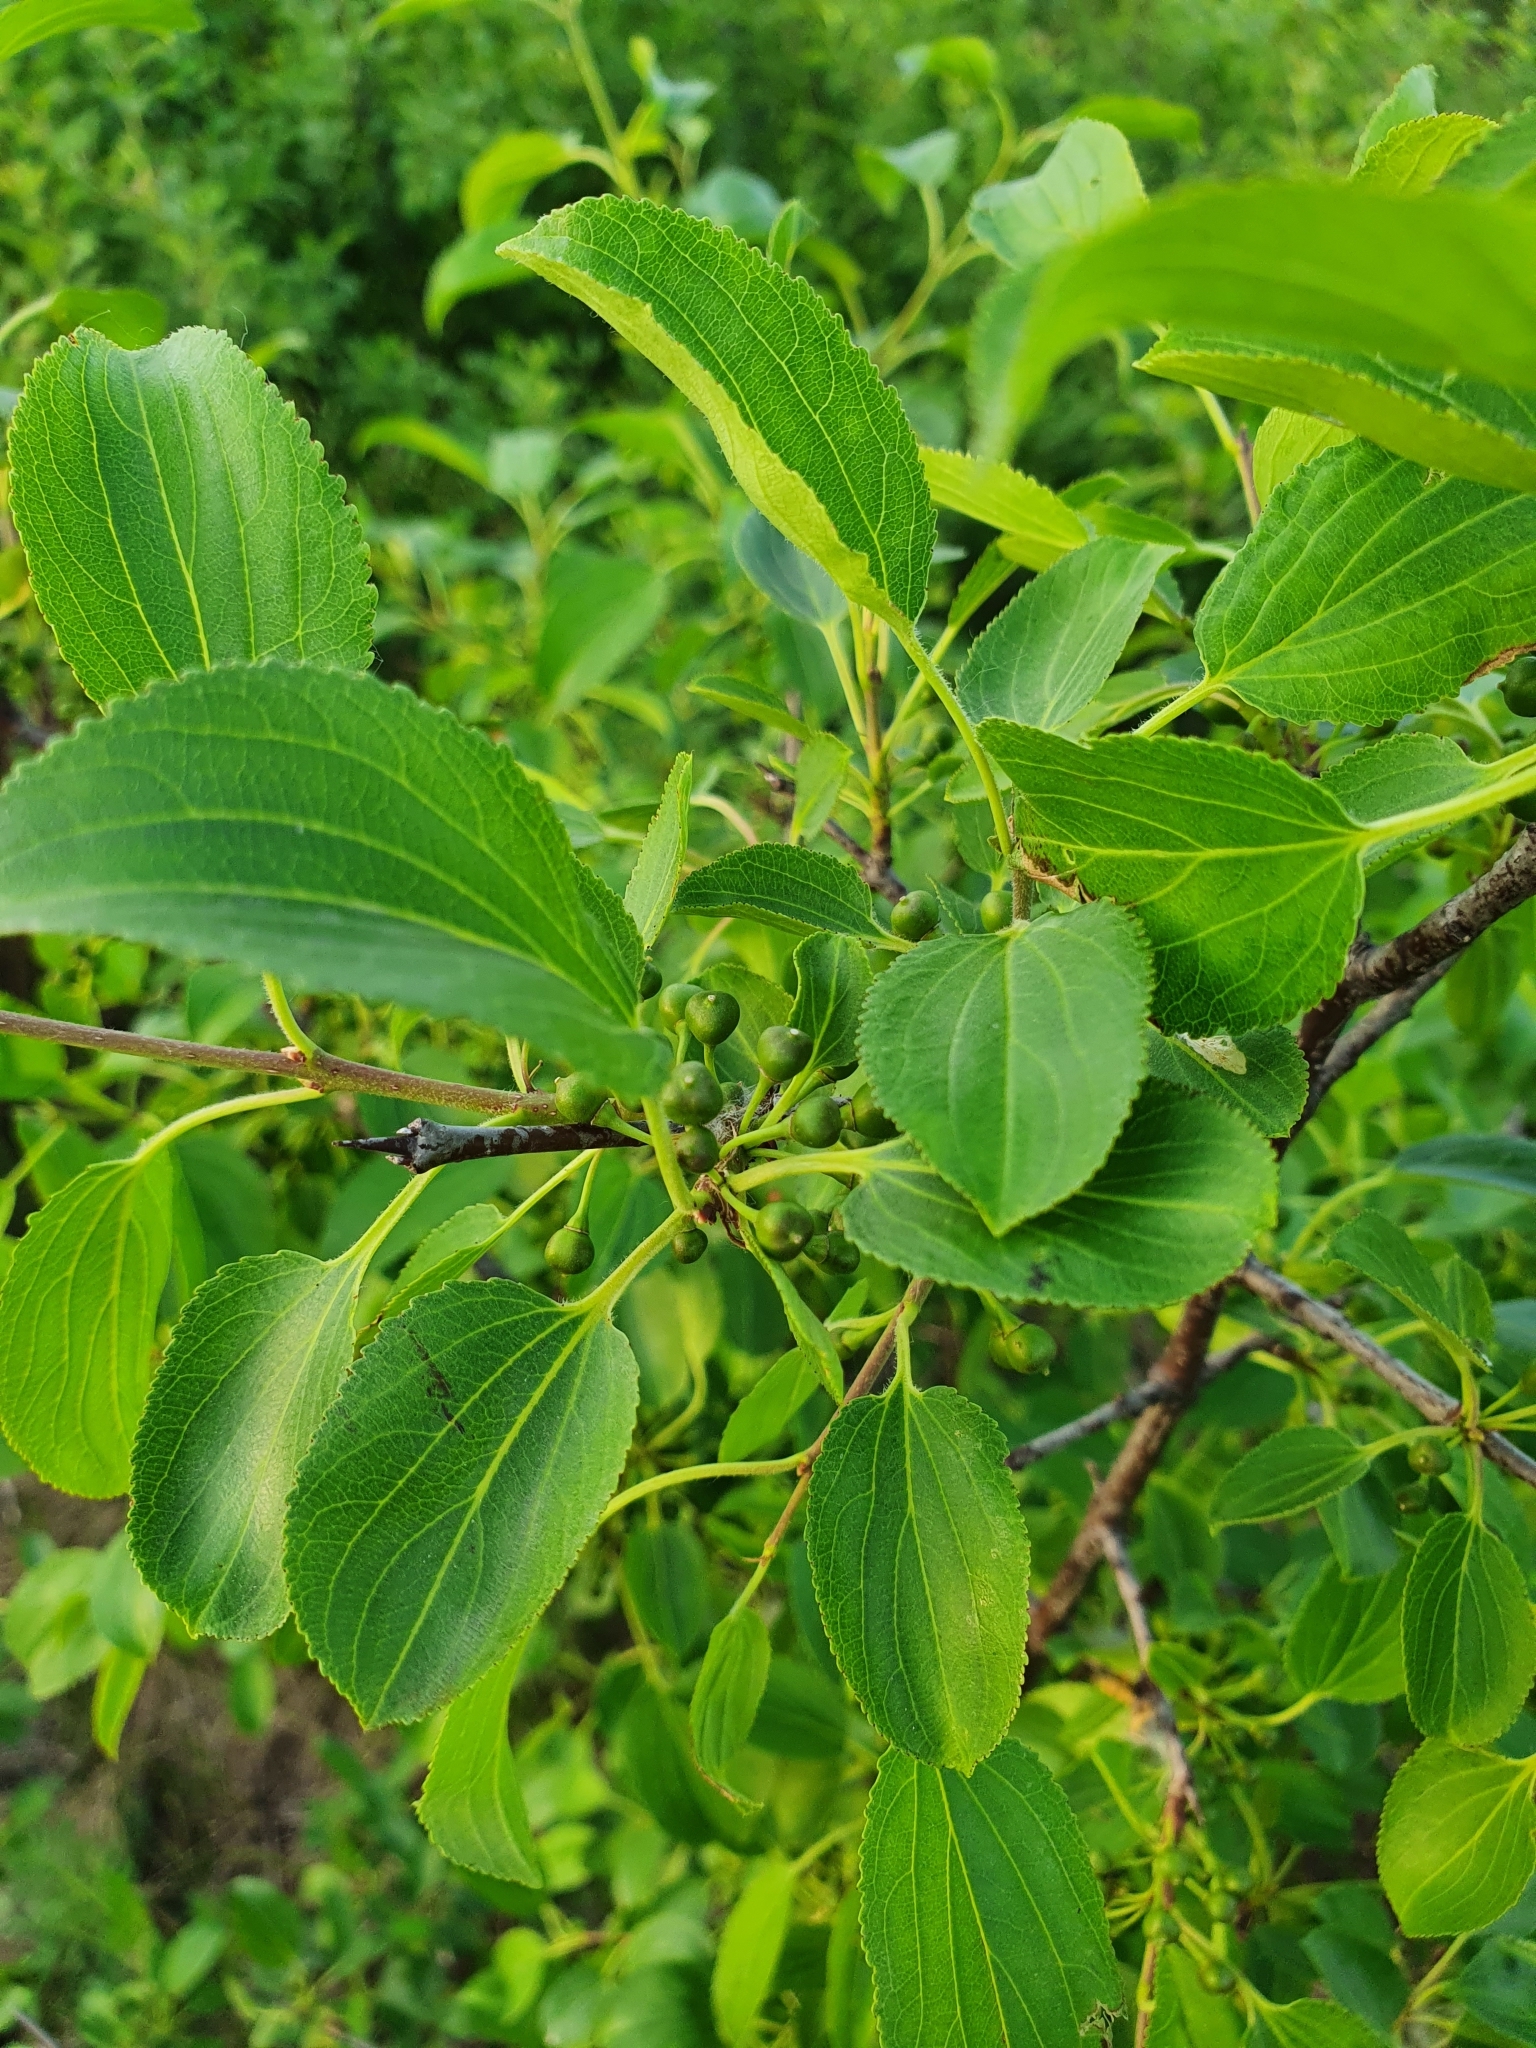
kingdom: Plantae
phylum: Tracheophyta
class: Magnoliopsida
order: Rosales
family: Rhamnaceae
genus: Rhamnus
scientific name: Rhamnus cathartica
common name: Common buckthorn
